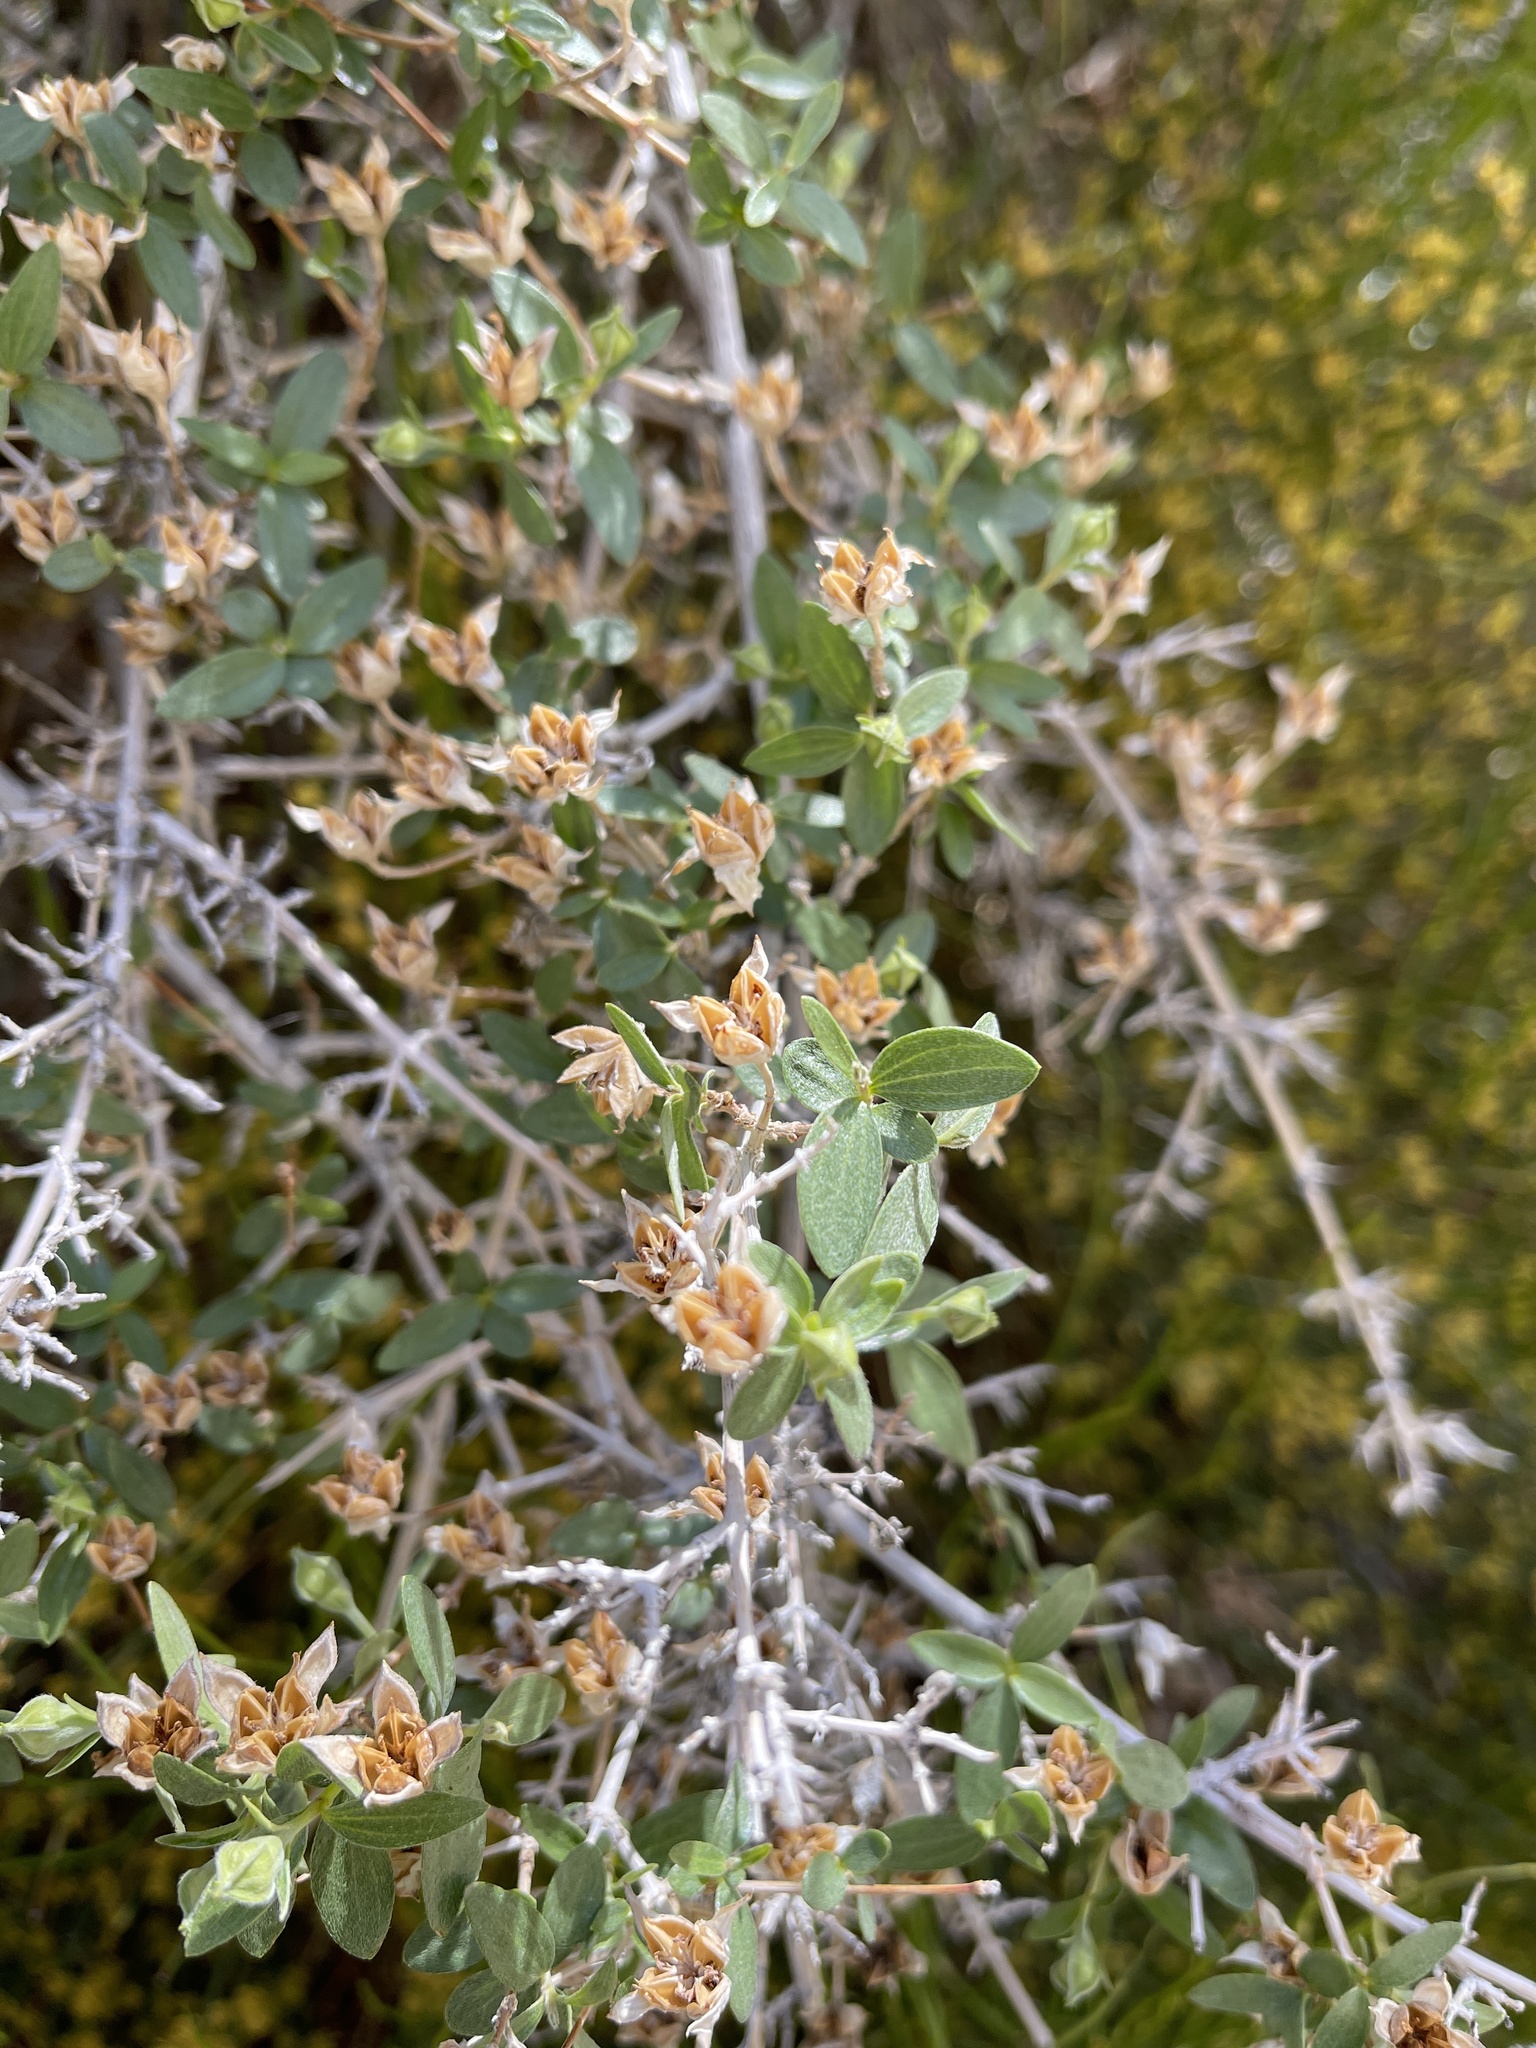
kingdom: Plantae
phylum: Tracheophyta
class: Magnoliopsida
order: Cornales
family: Hydrangeaceae
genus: Philadelphus
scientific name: Philadelphus microphyllus
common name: Desert mock orange
